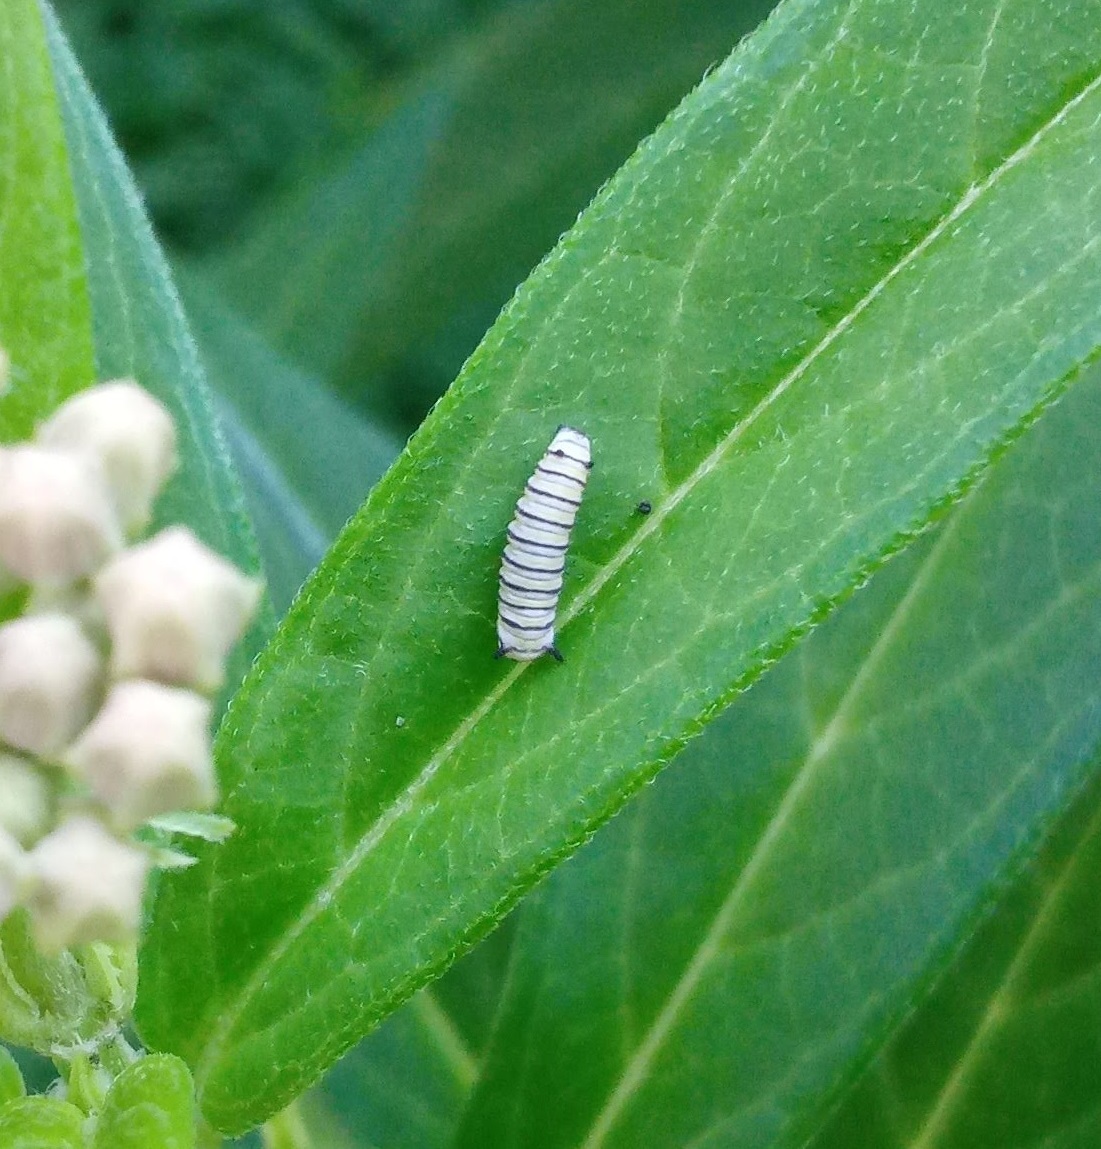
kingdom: Animalia
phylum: Arthropoda
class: Insecta
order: Lepidoptera
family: Nymphalidae
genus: Danaus
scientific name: Danaus plexippus
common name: Monarch
